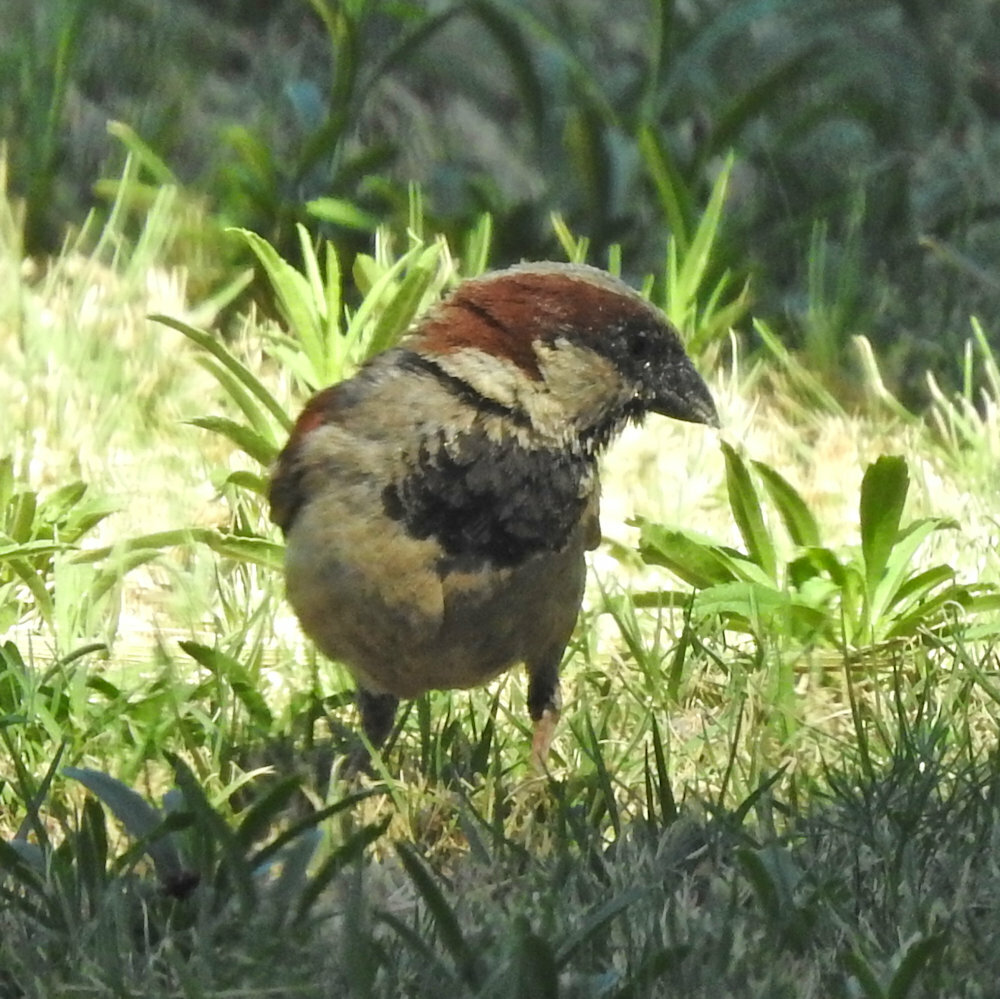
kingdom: Animalia
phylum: Chordata
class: Aves
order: Passeriformes
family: Passeridae
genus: Passer
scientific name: Passer domesticus
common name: House sparrow
